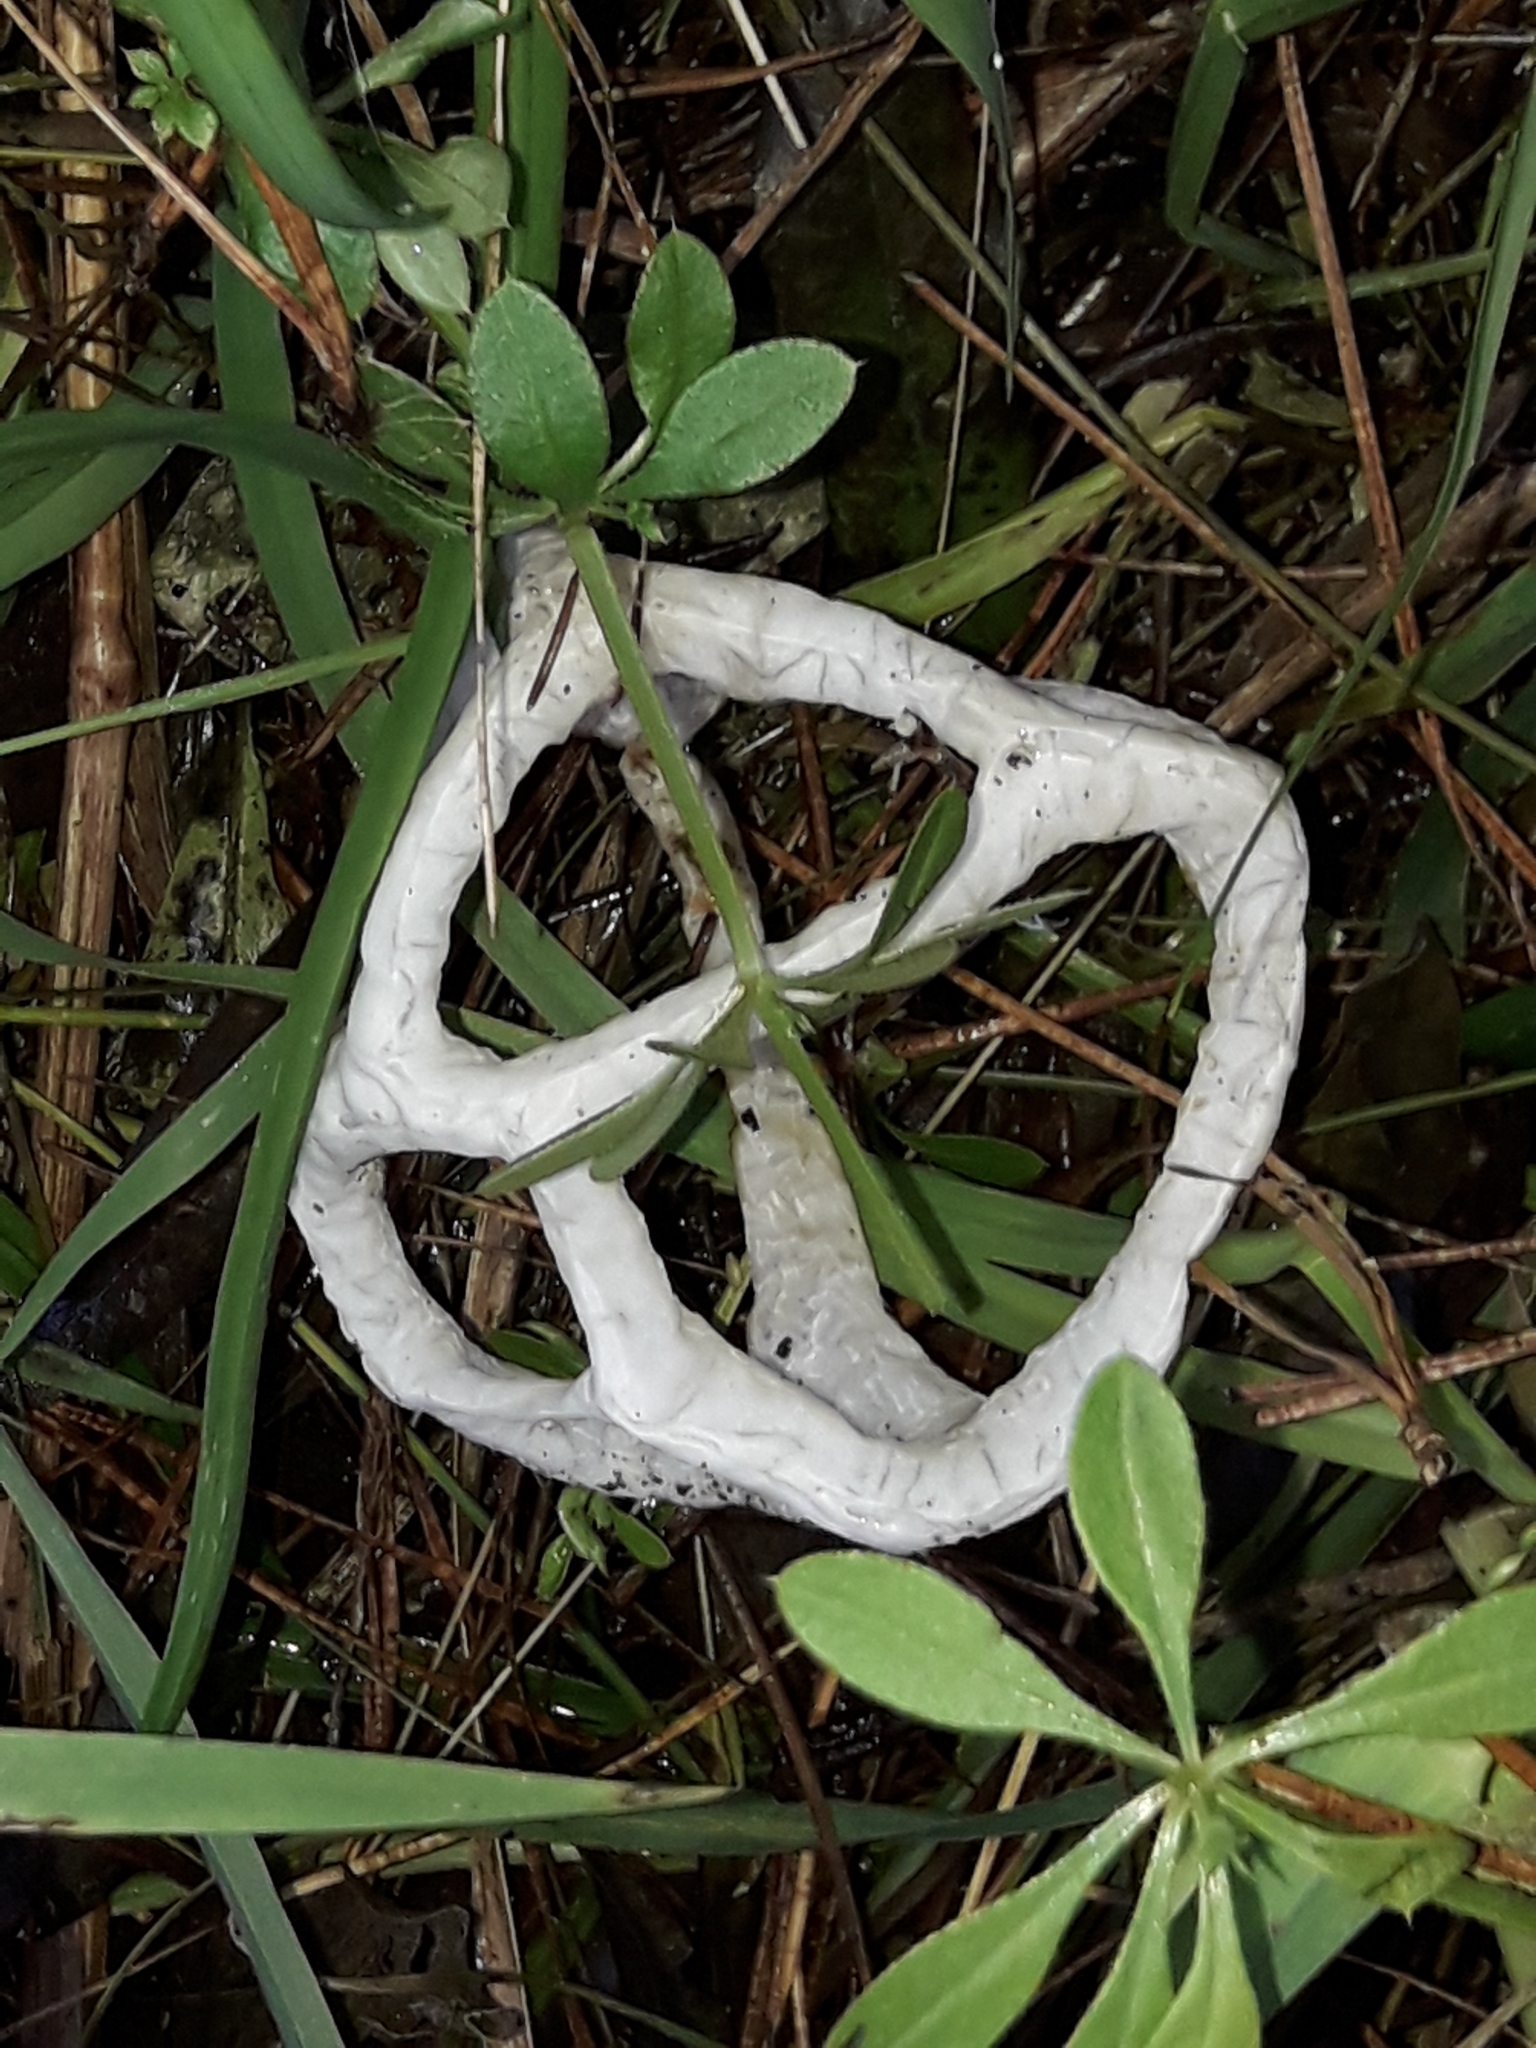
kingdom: Fungi
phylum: Basidiomycota
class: Agaricomycetes
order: Phallales
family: Phallaceae
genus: Ileodictyon
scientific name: Ileodictyon cibarium
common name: Basket fungus
